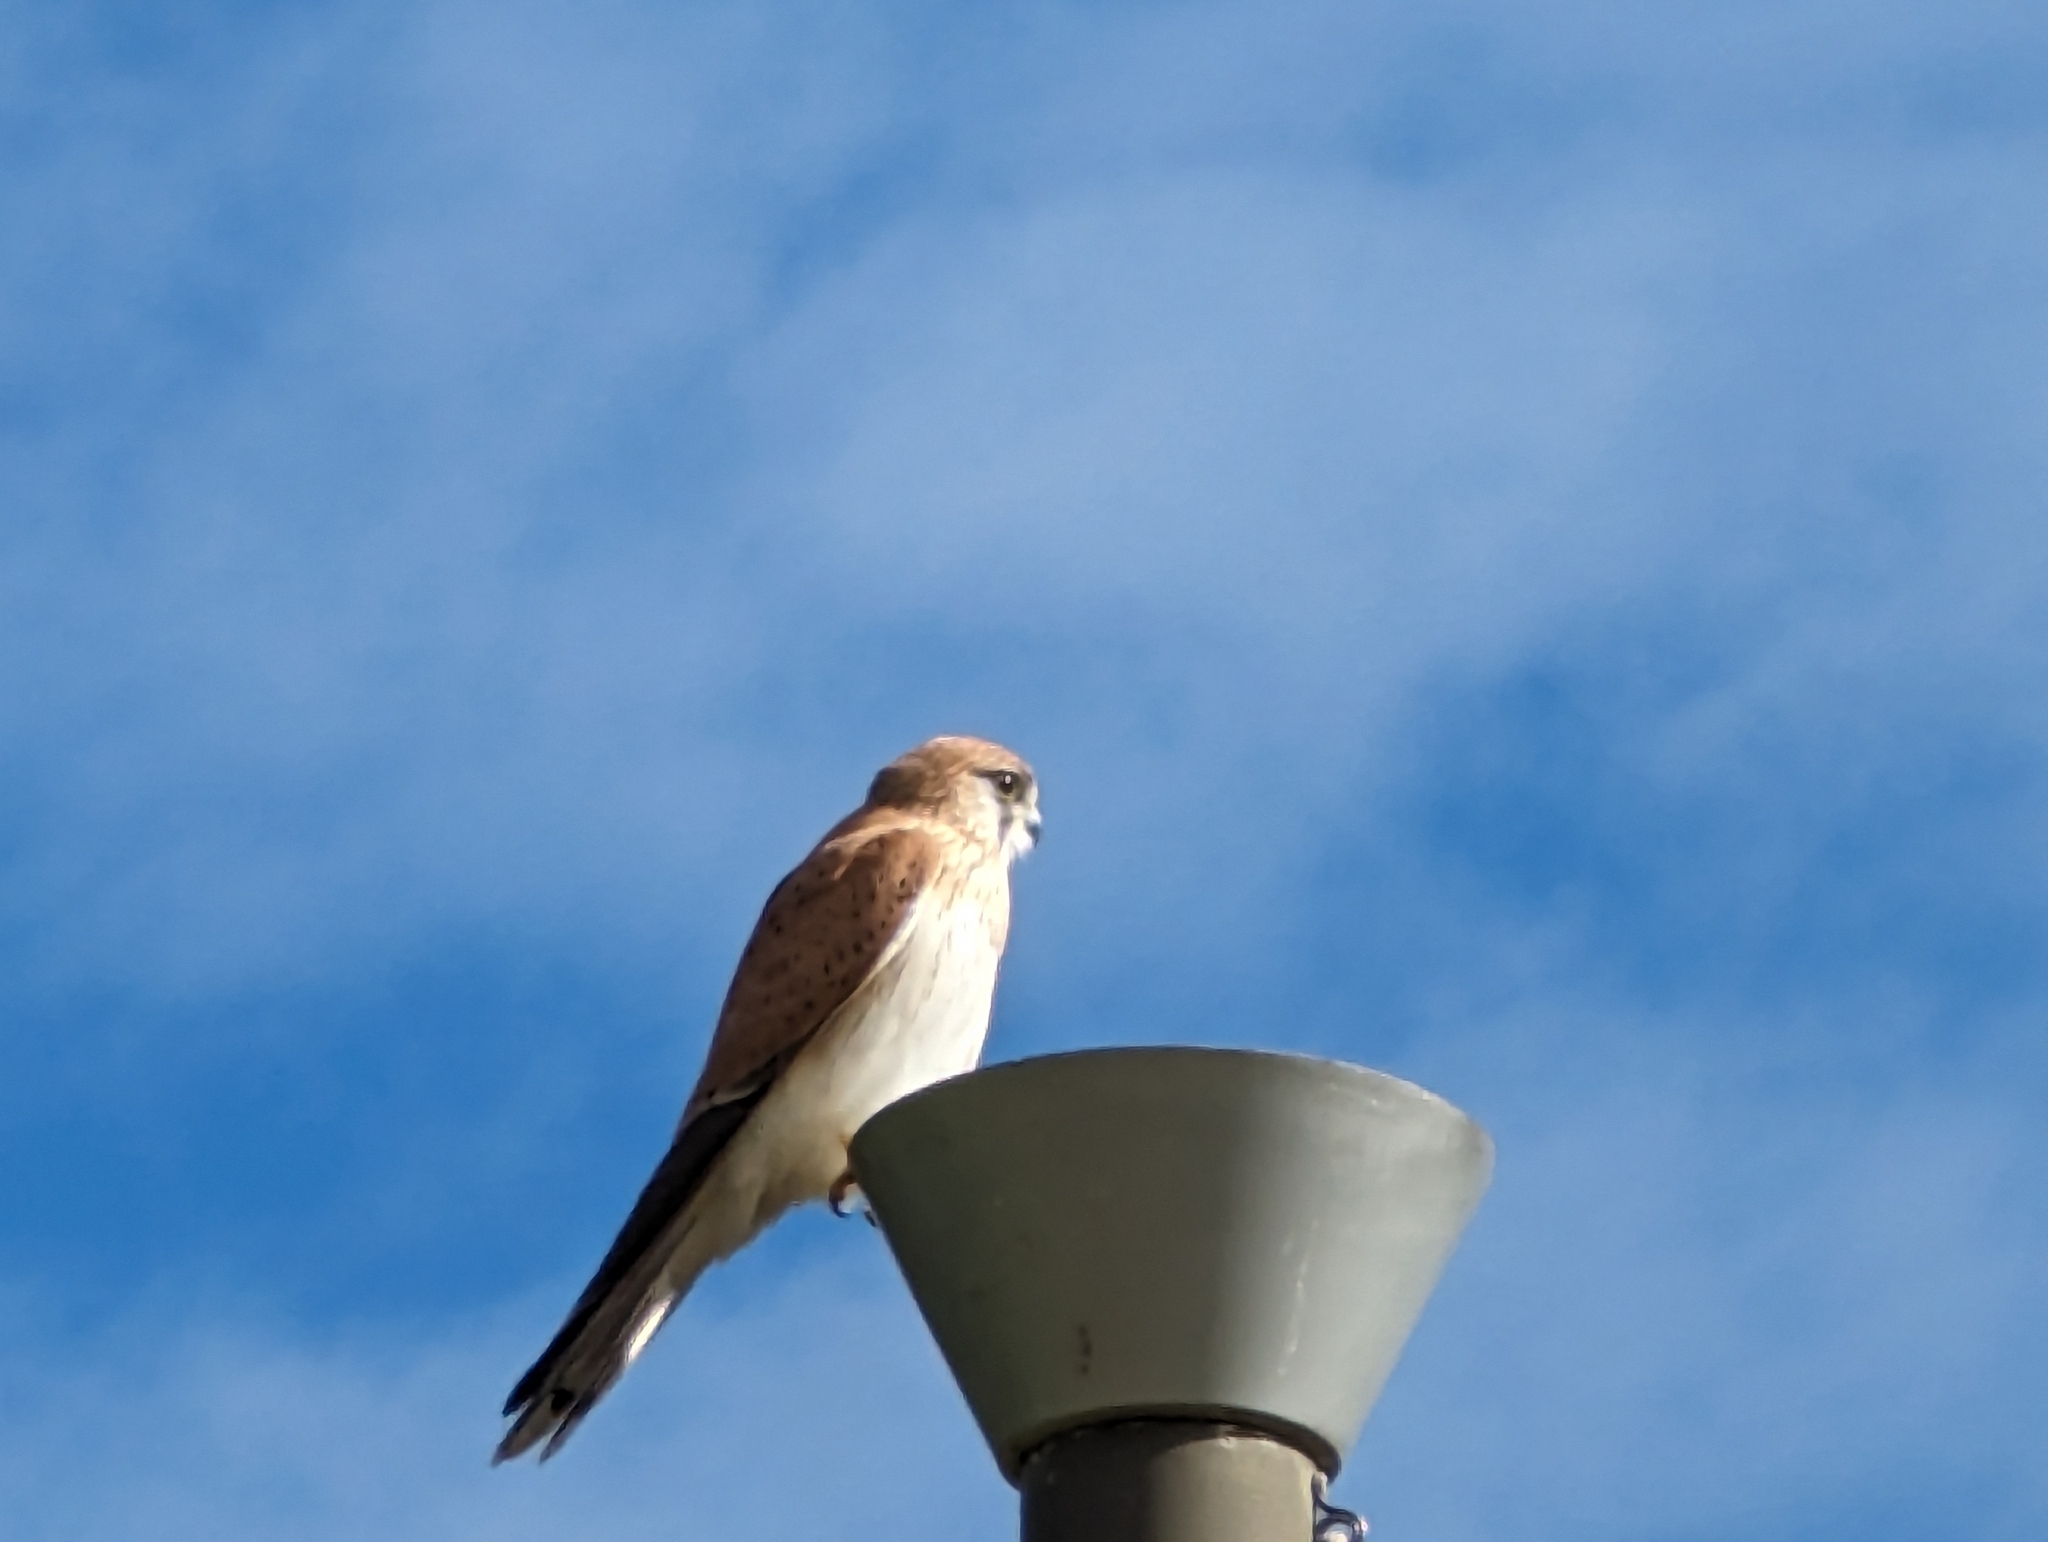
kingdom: Animalia
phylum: Chordata
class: Aves
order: Falconiformes
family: Falconidae
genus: Falco
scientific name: Falco cenchroides
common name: Nankeen kestrel
